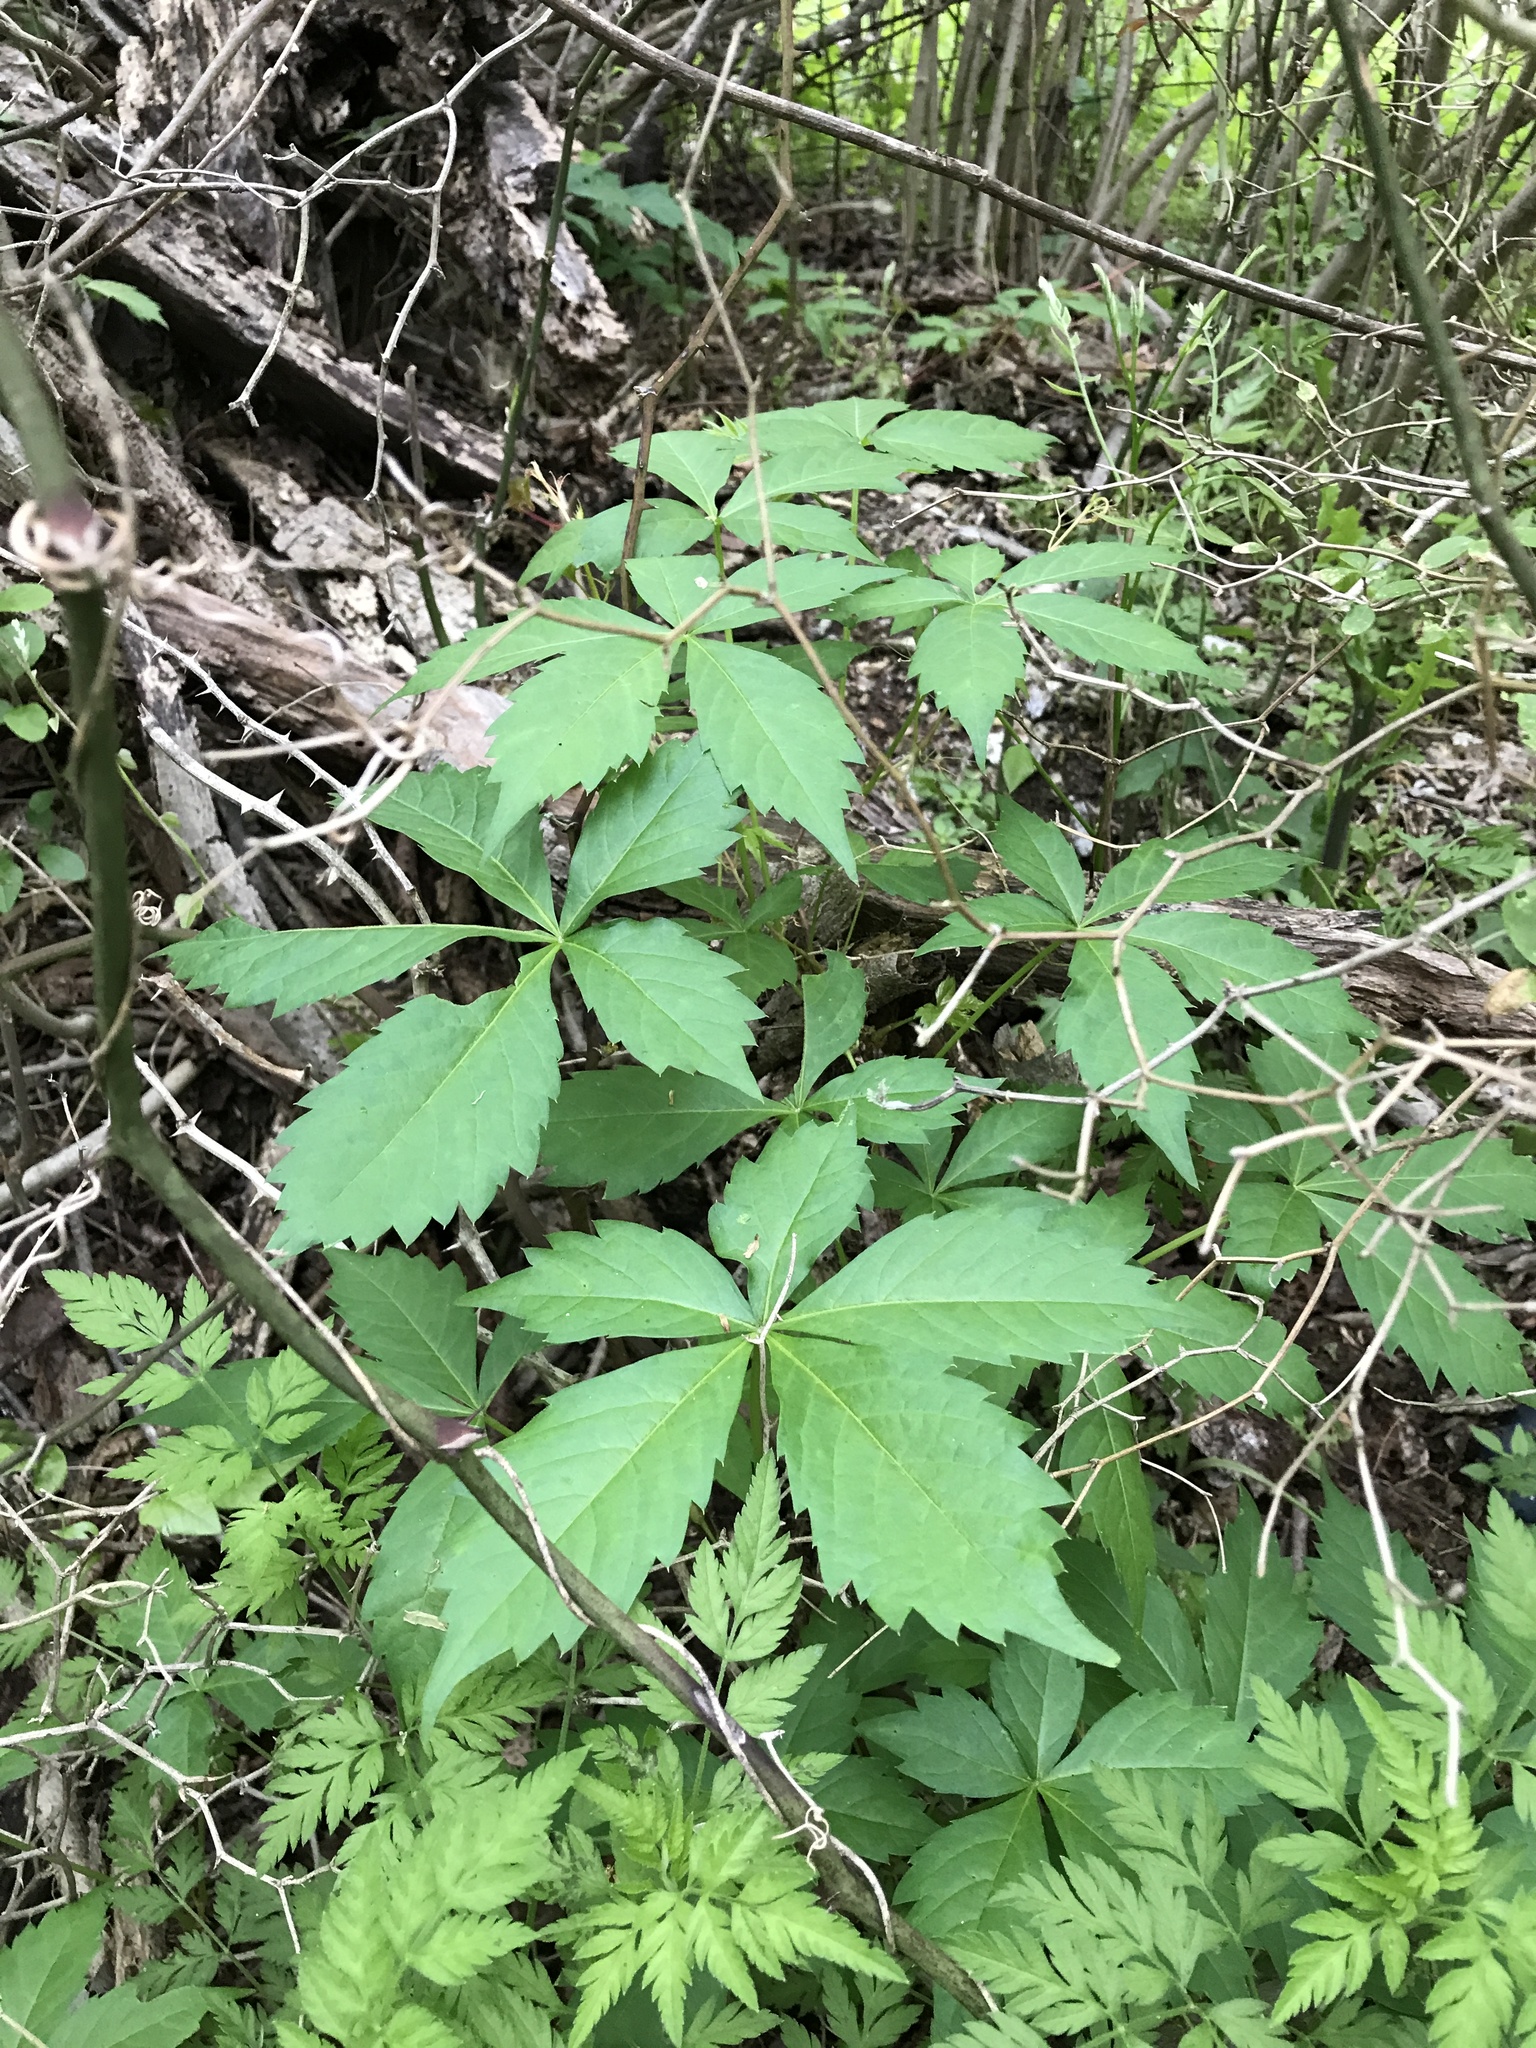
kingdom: Plantae
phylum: Tracheophyta
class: Magnoliopsida
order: Vitales
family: Vitaceae
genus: Parthenocissus
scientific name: Parthenocissus quinquefolia
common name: Virginia-creeper
